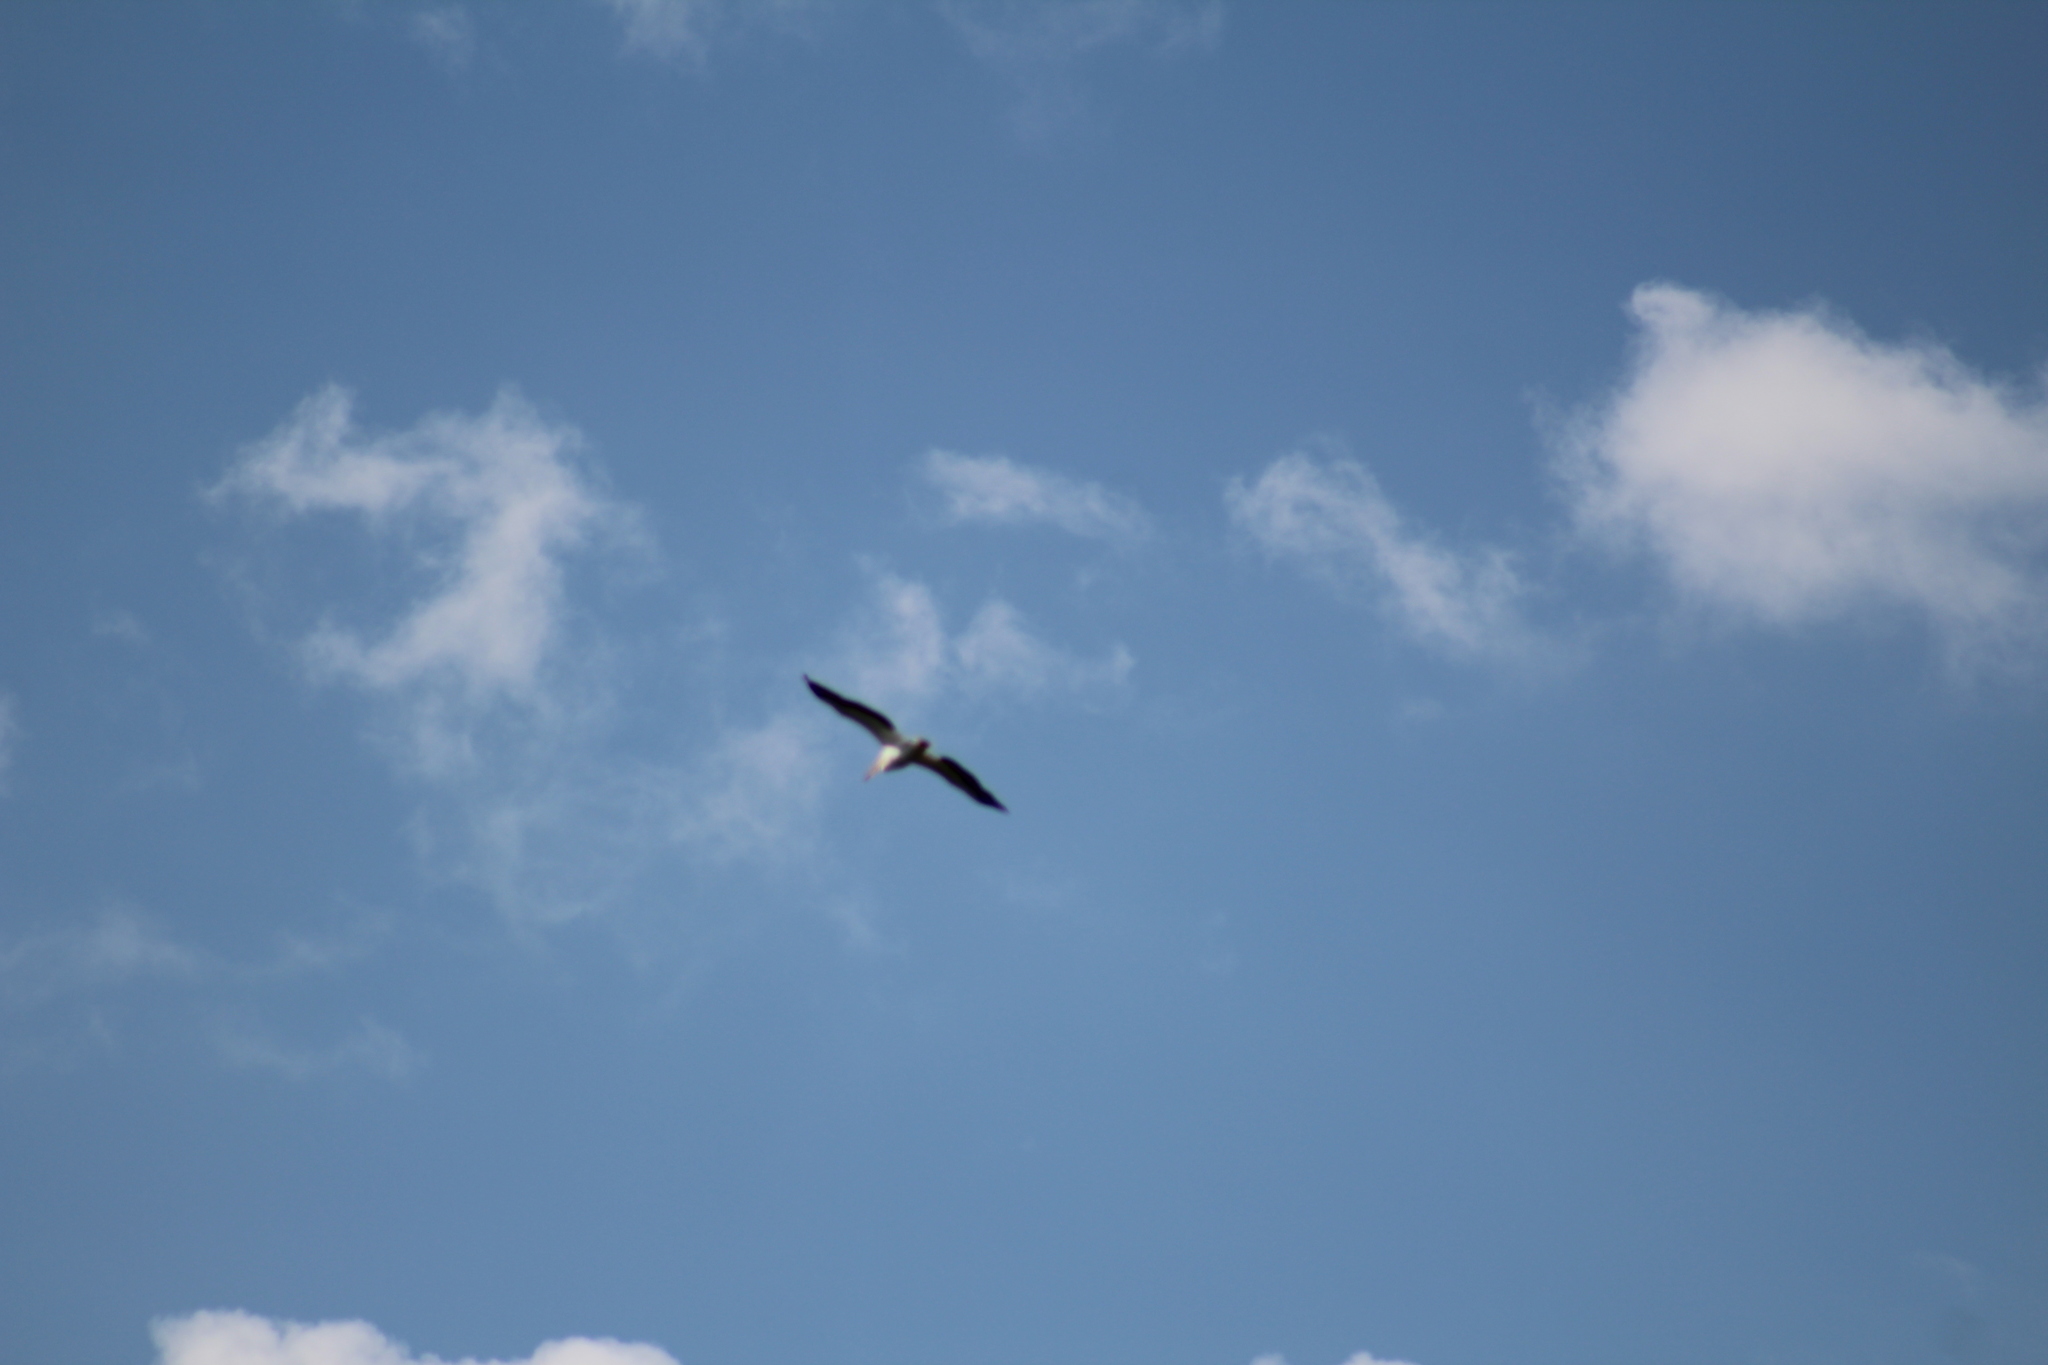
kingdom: Animalia
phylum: Chordata
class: Aves
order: Pelecaniformes
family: Pelecanidae
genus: Pelecanus
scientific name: Pelecanus erythrorhynchos
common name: American white pelican
